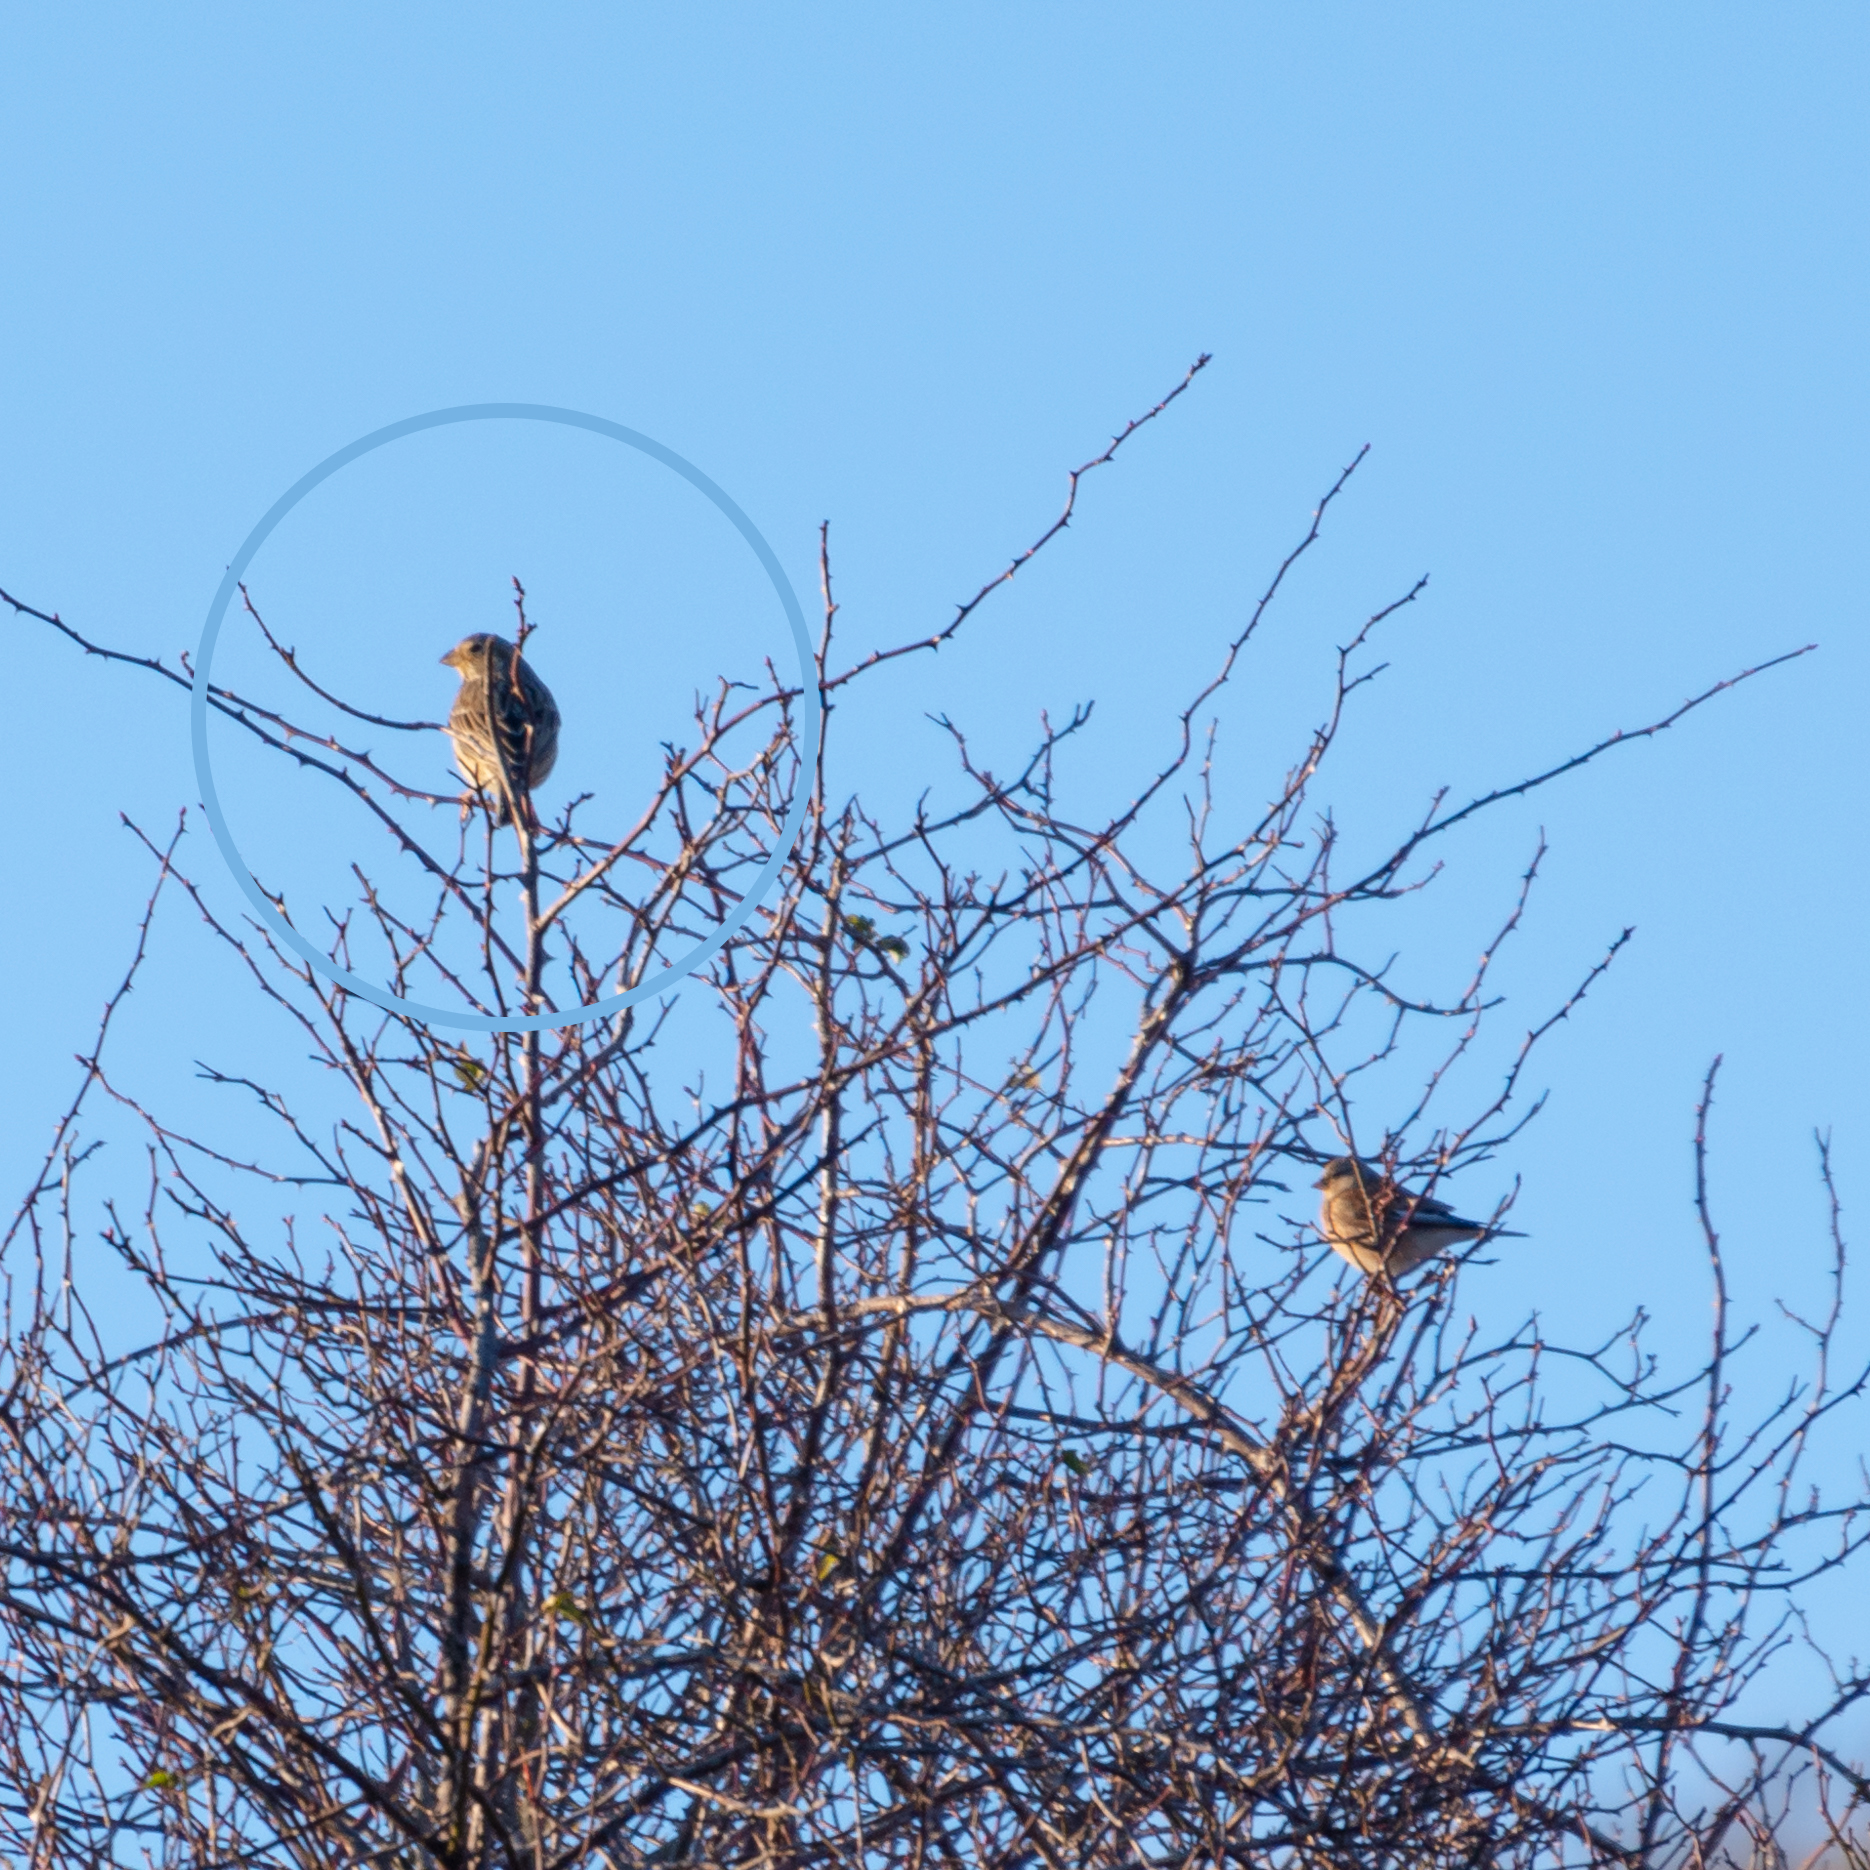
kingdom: Animalia
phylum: Chordata
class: Aves
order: Passeriformes
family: Emberizidae
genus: Emberiza
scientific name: Emberiza calandra
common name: Corn bunting
